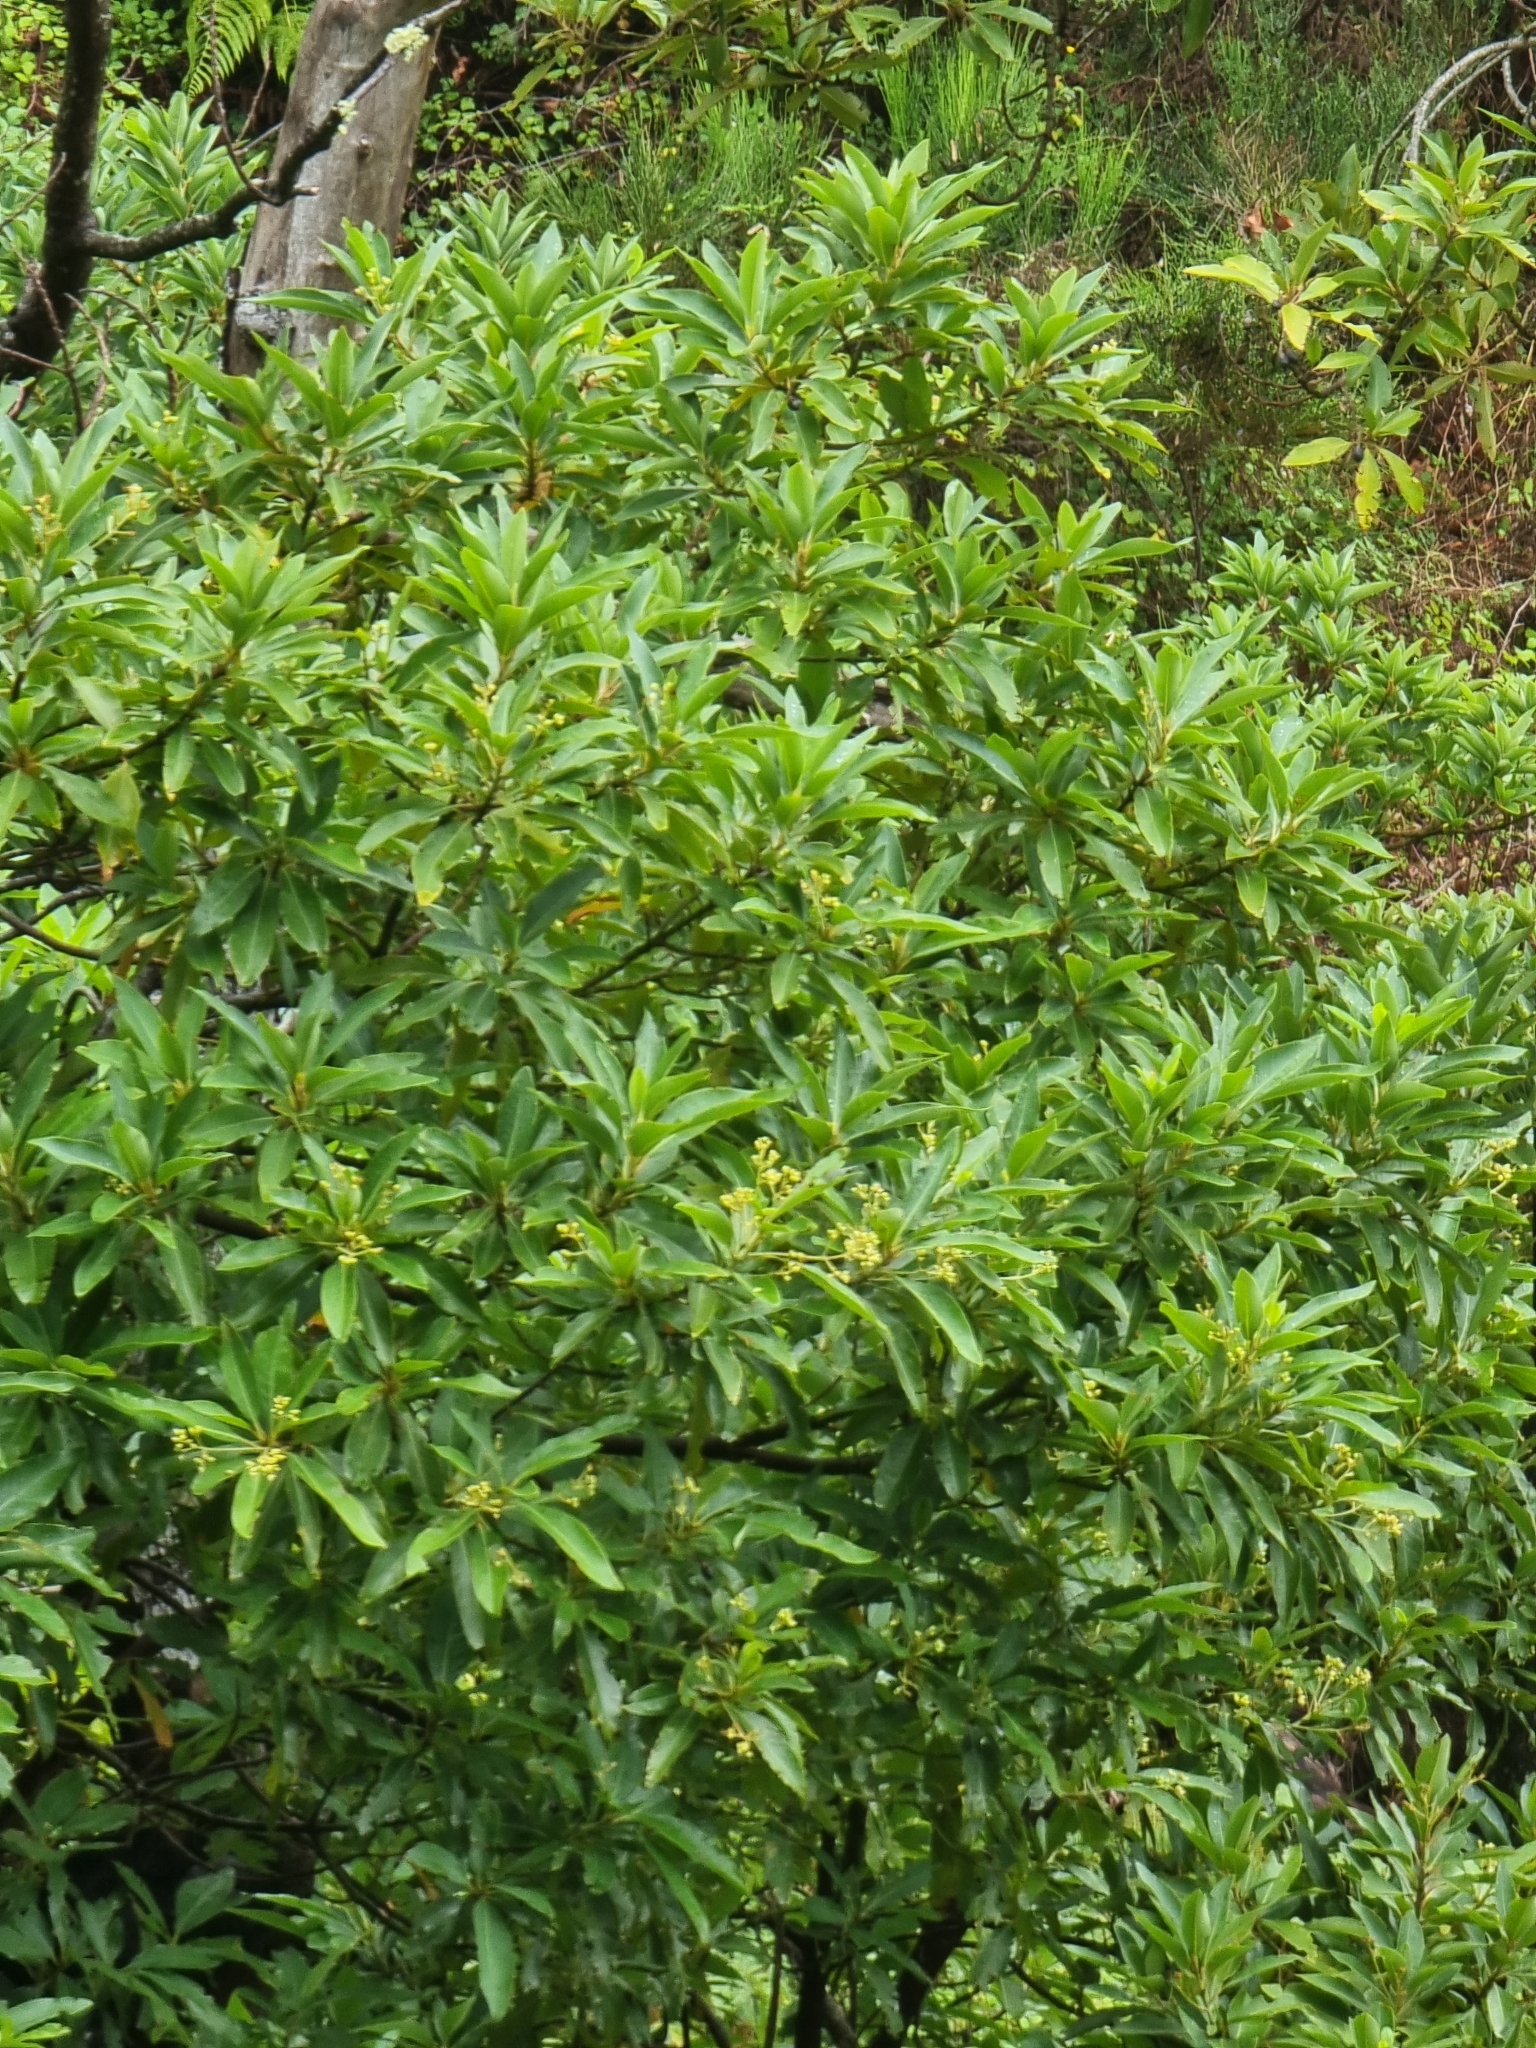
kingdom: Plantae
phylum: Tracheophyta
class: Magnoliopsida
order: Laurales
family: Lauraceae
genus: Persea
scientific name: Persea indica
